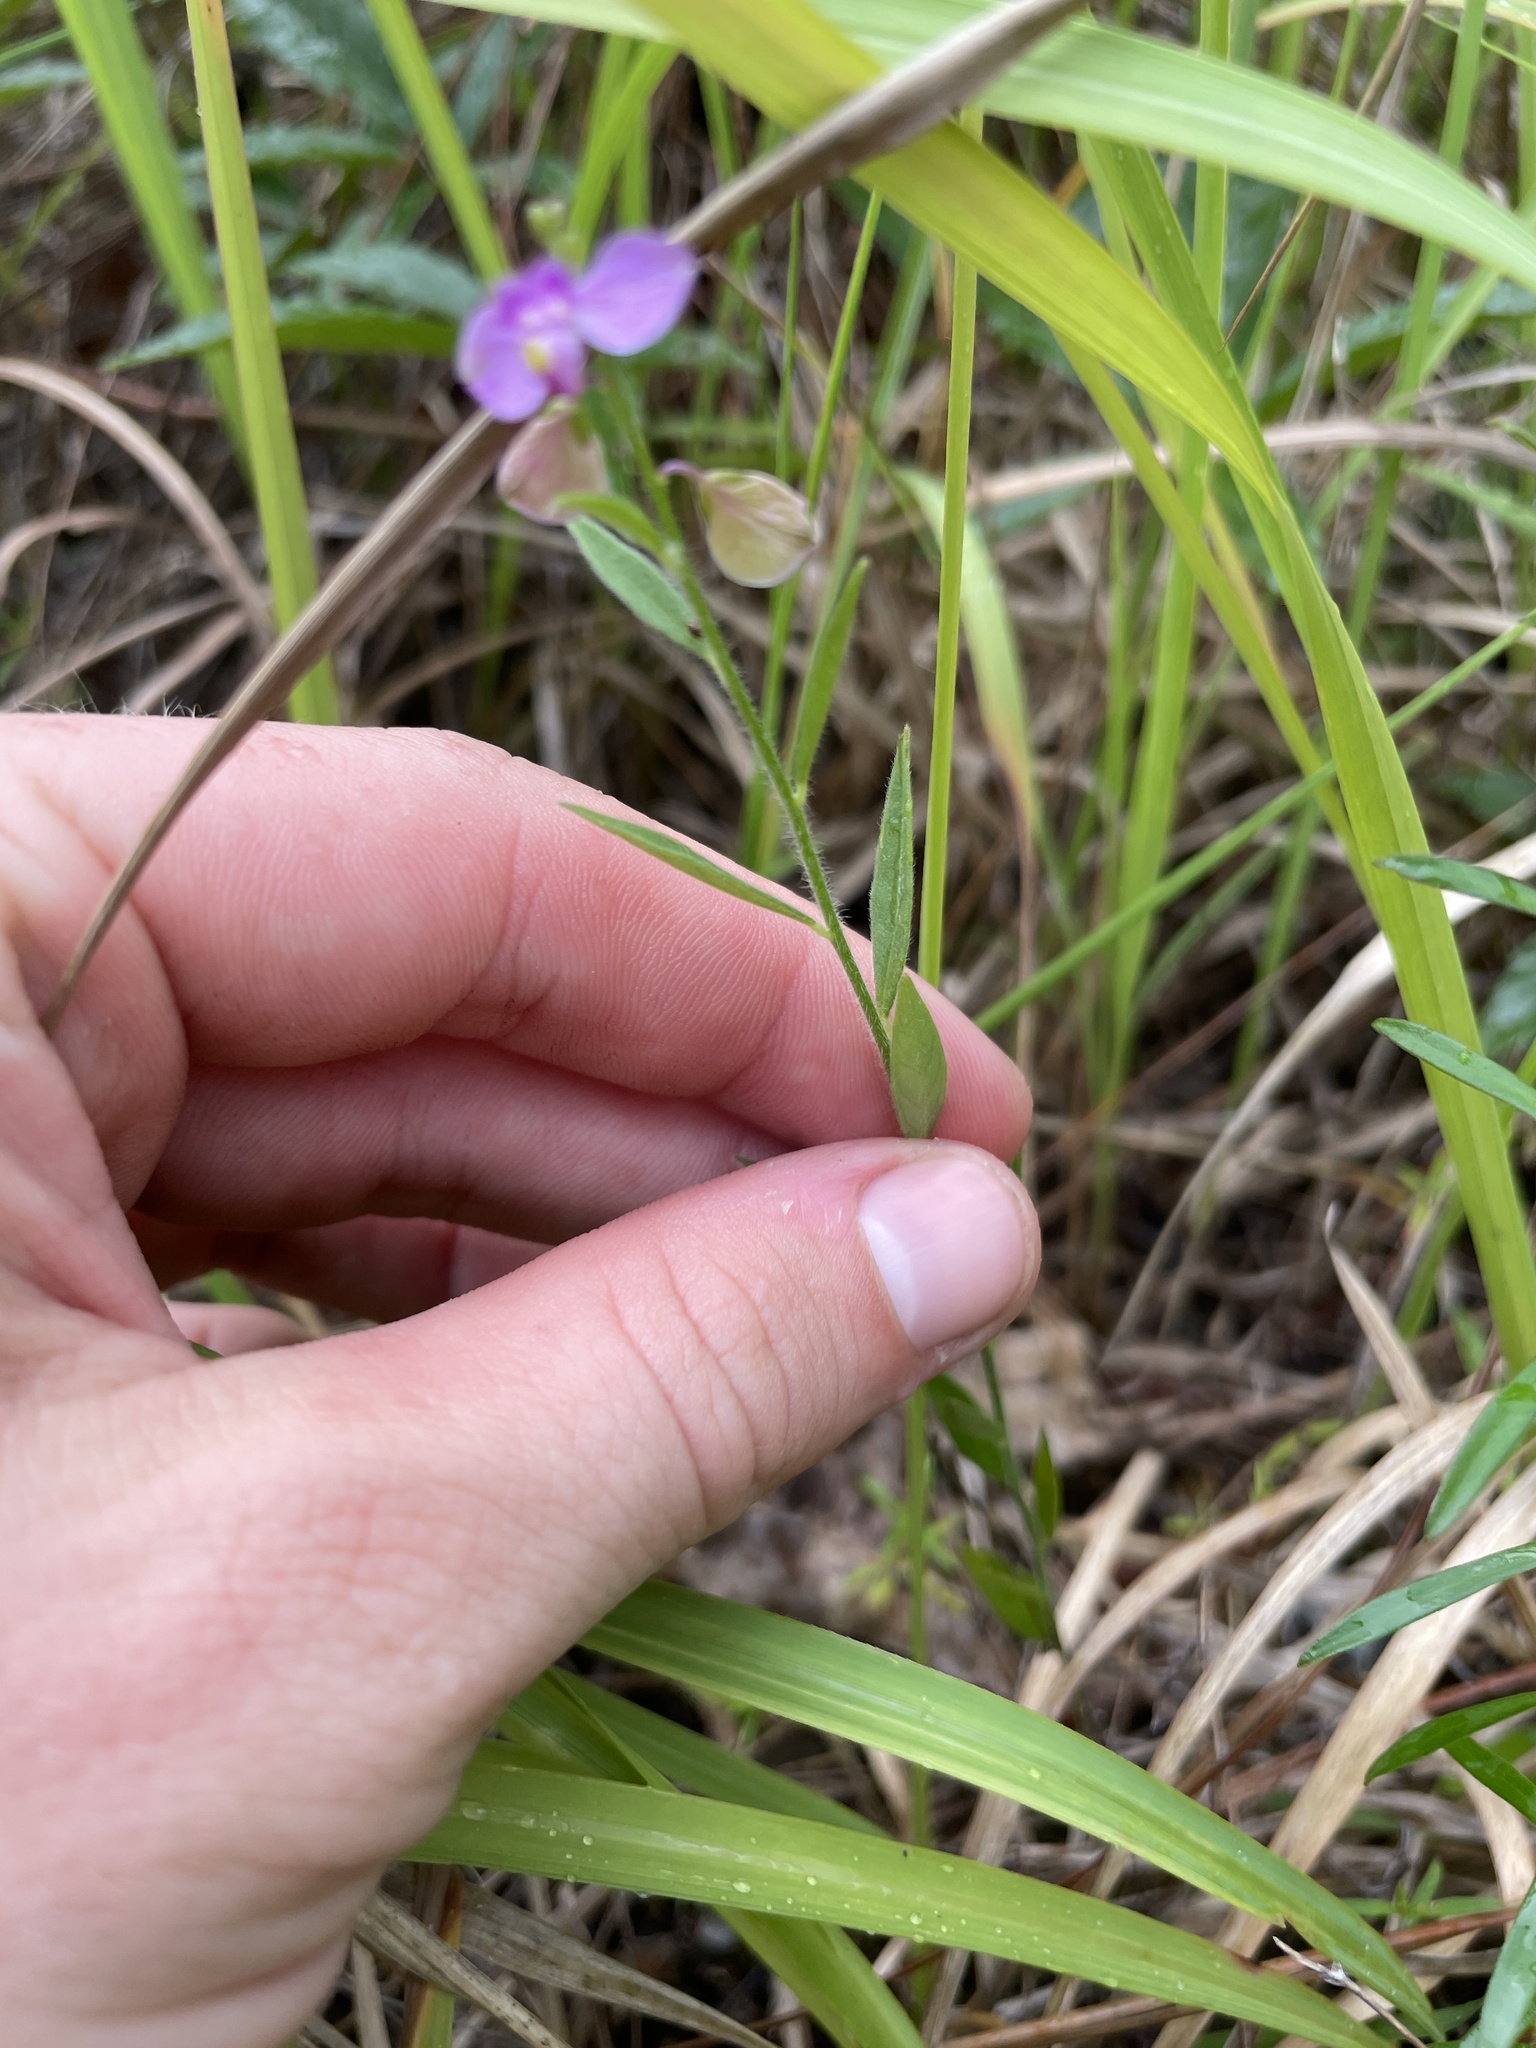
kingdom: Plantae
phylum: Tracheophyta
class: Magnoliopsida
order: Fabales
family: Polygalaceae
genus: Asemeia
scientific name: Asemeia grandiflora
